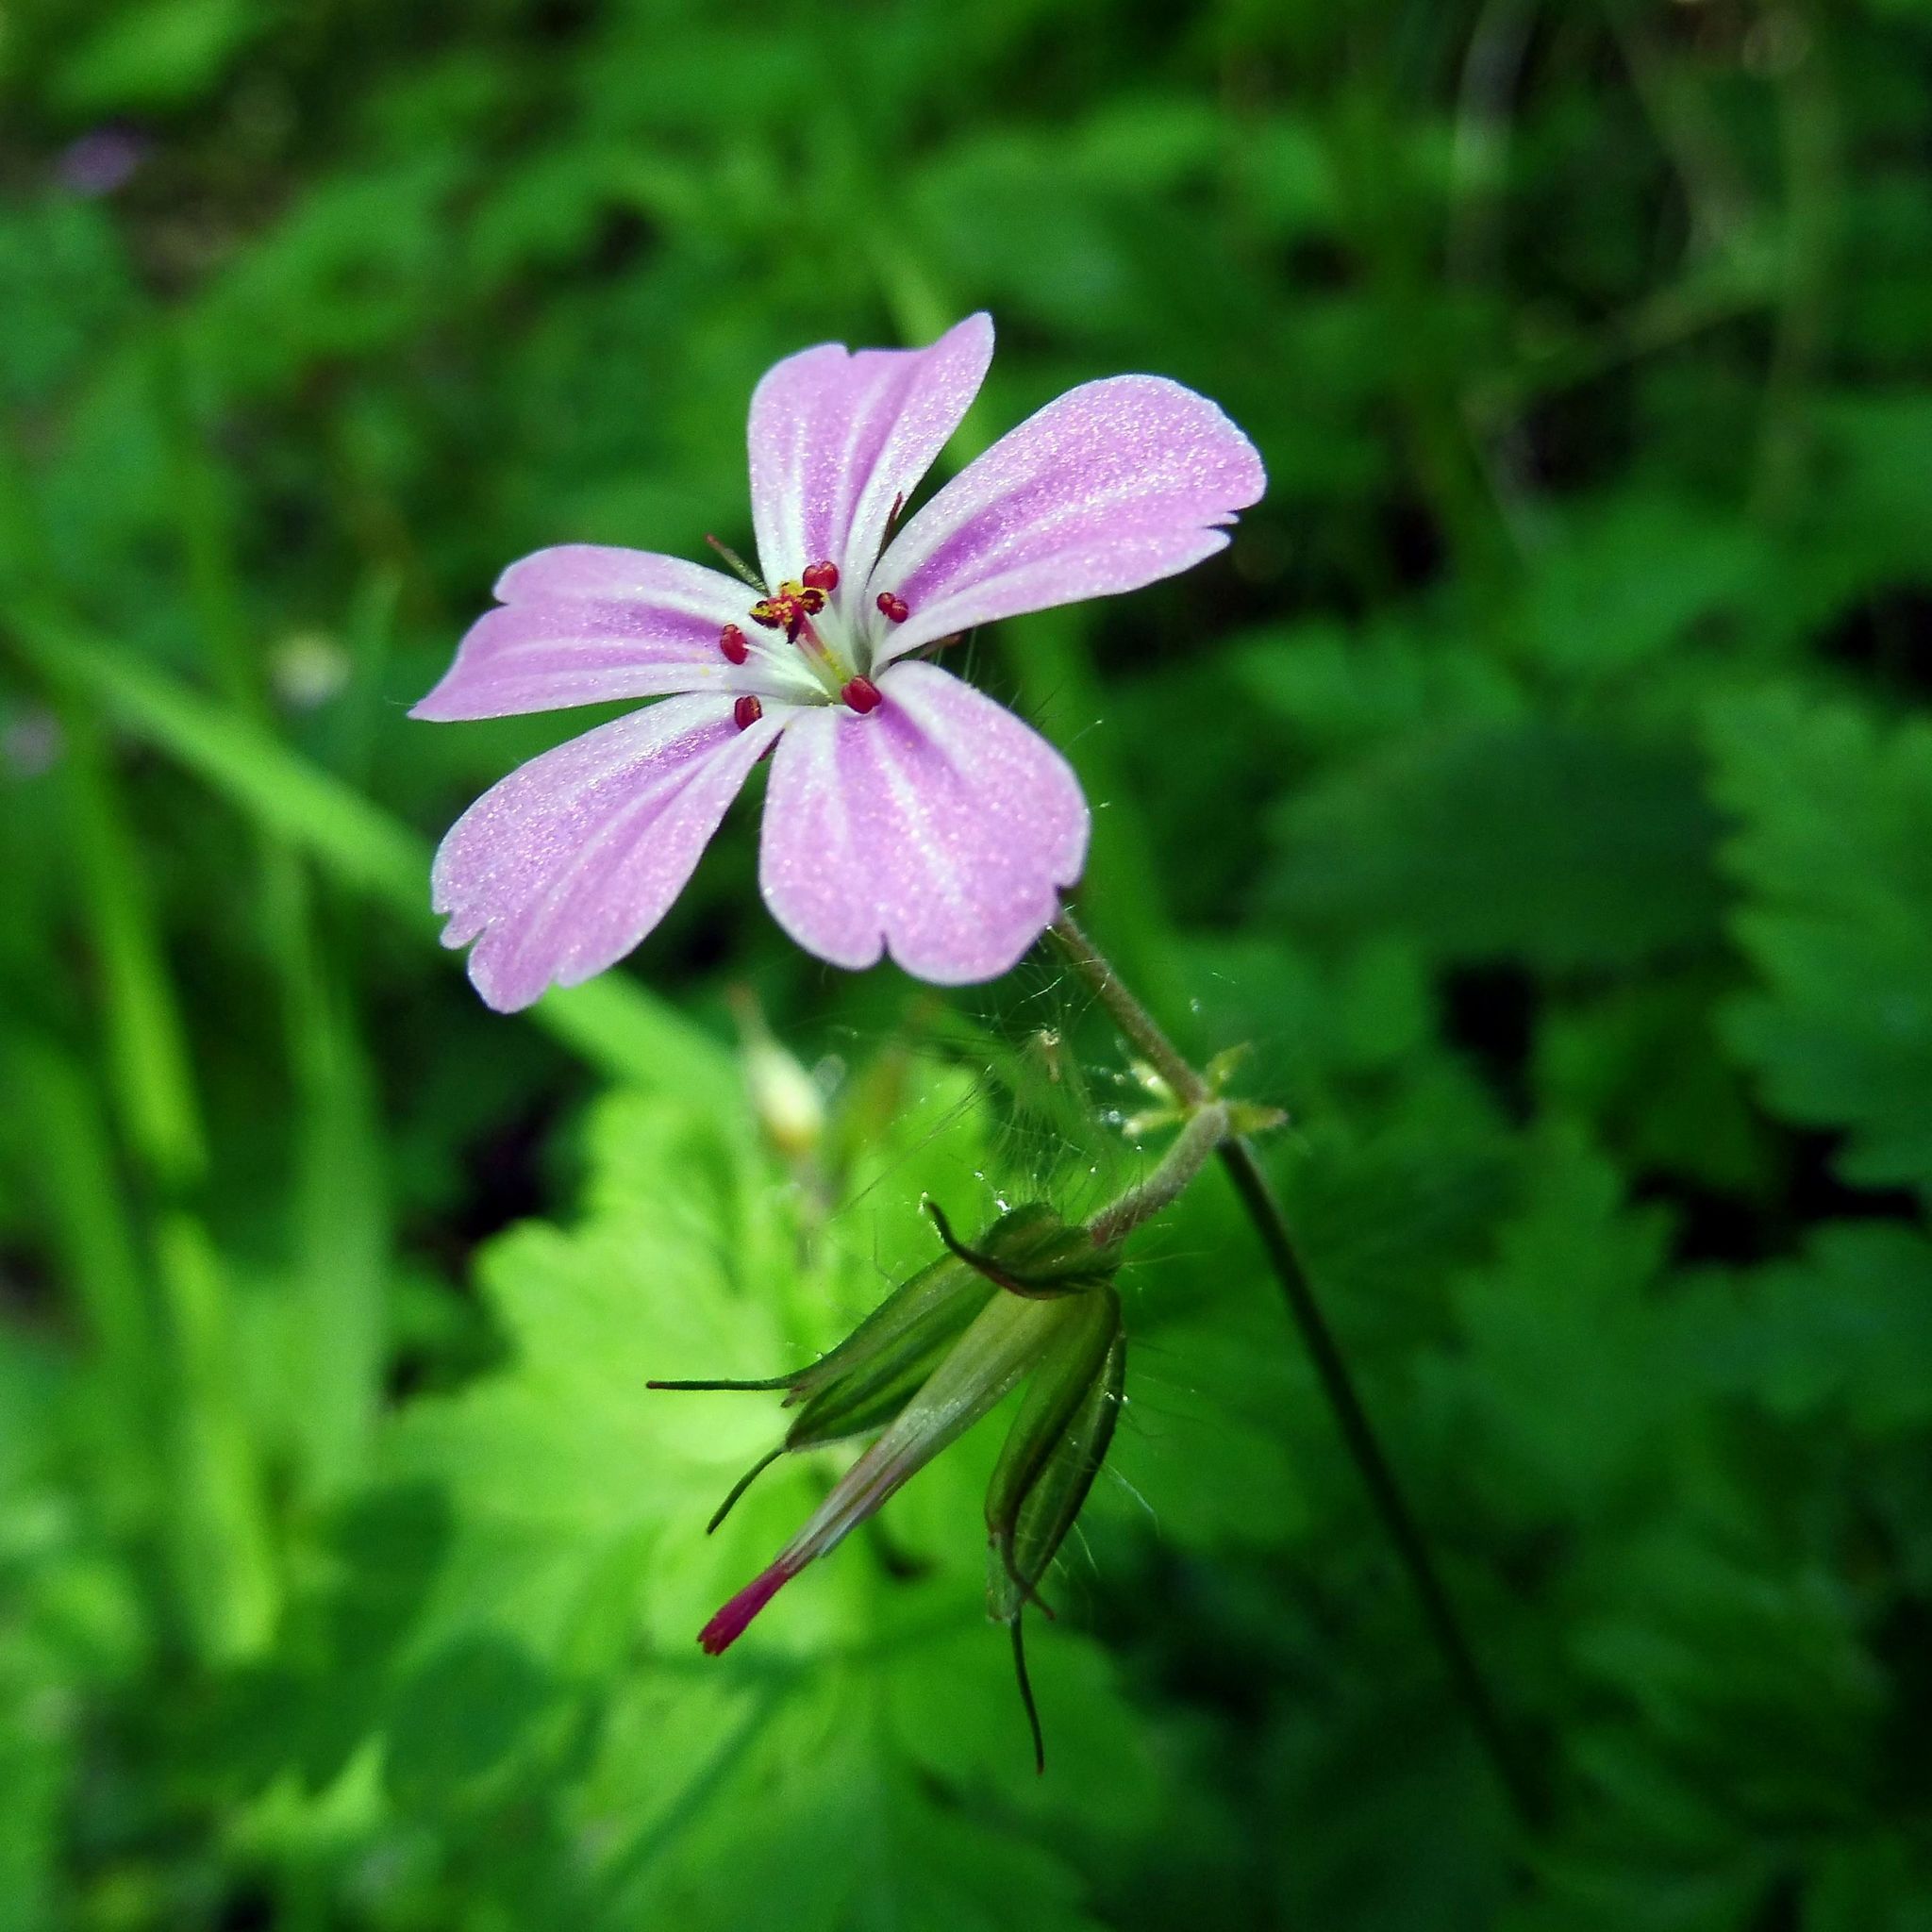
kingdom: Plantae
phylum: Tracheophyta
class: Magnoliopsida
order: Geraniales
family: Geraniaceae
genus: Geranium
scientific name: Geranium robertianum
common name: Herb-robert
